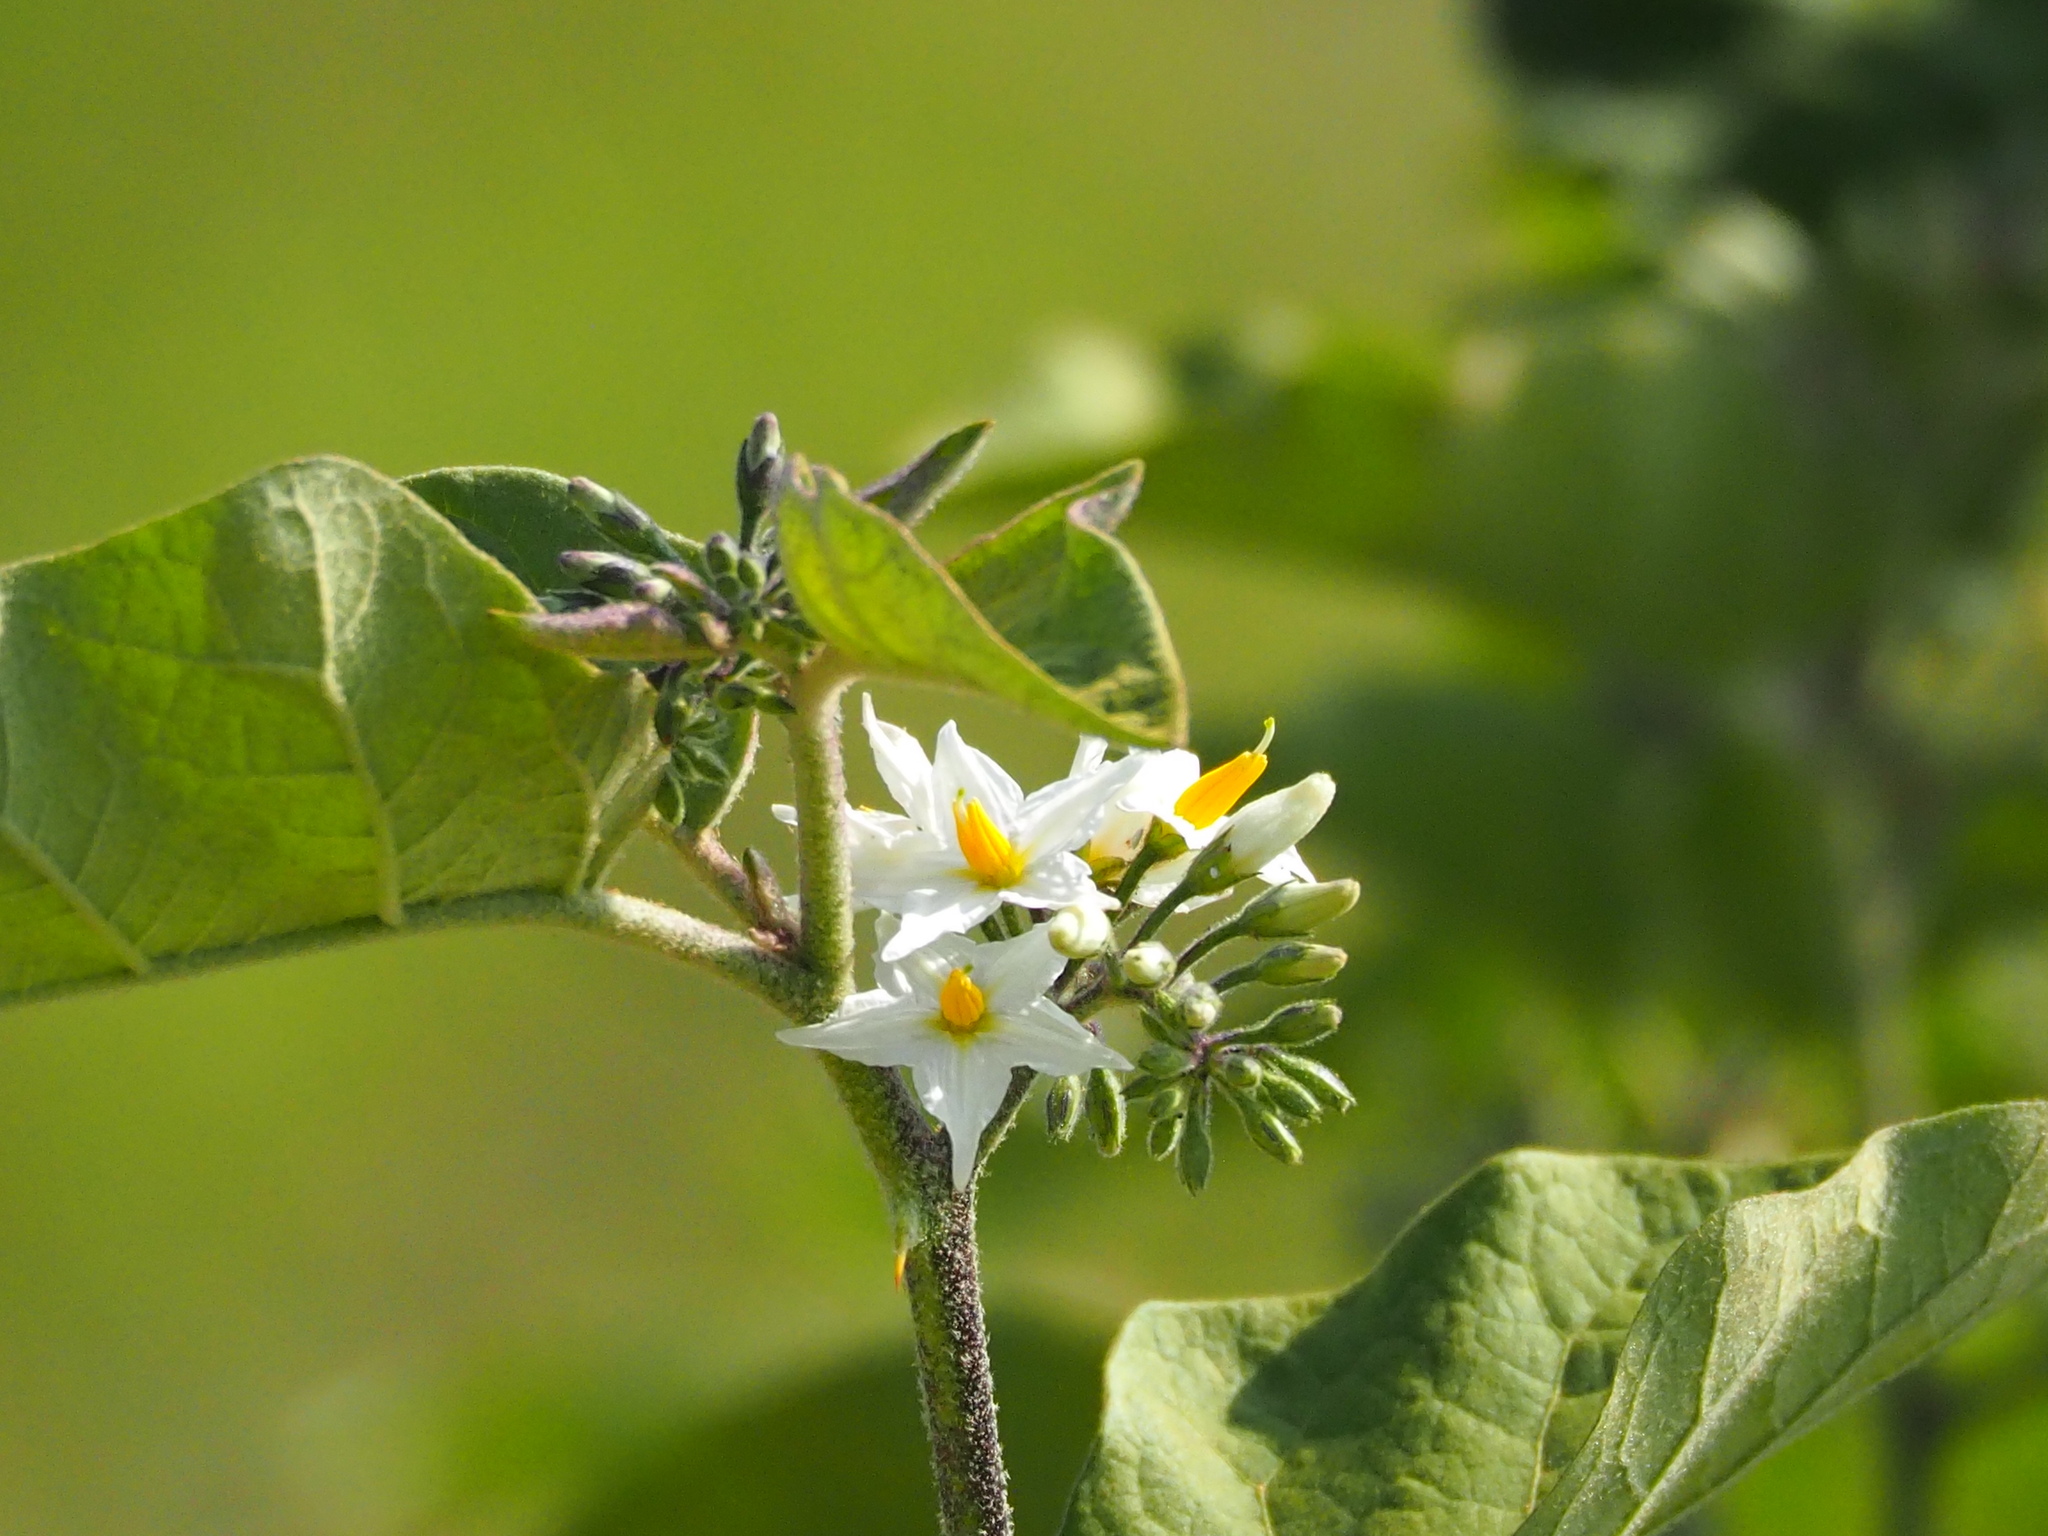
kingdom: Plantae
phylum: Tracheophyta
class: Magnoliopsida
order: Solanales
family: Solanaceae
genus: Solanum
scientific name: Solanum torvum
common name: Turkey berry
